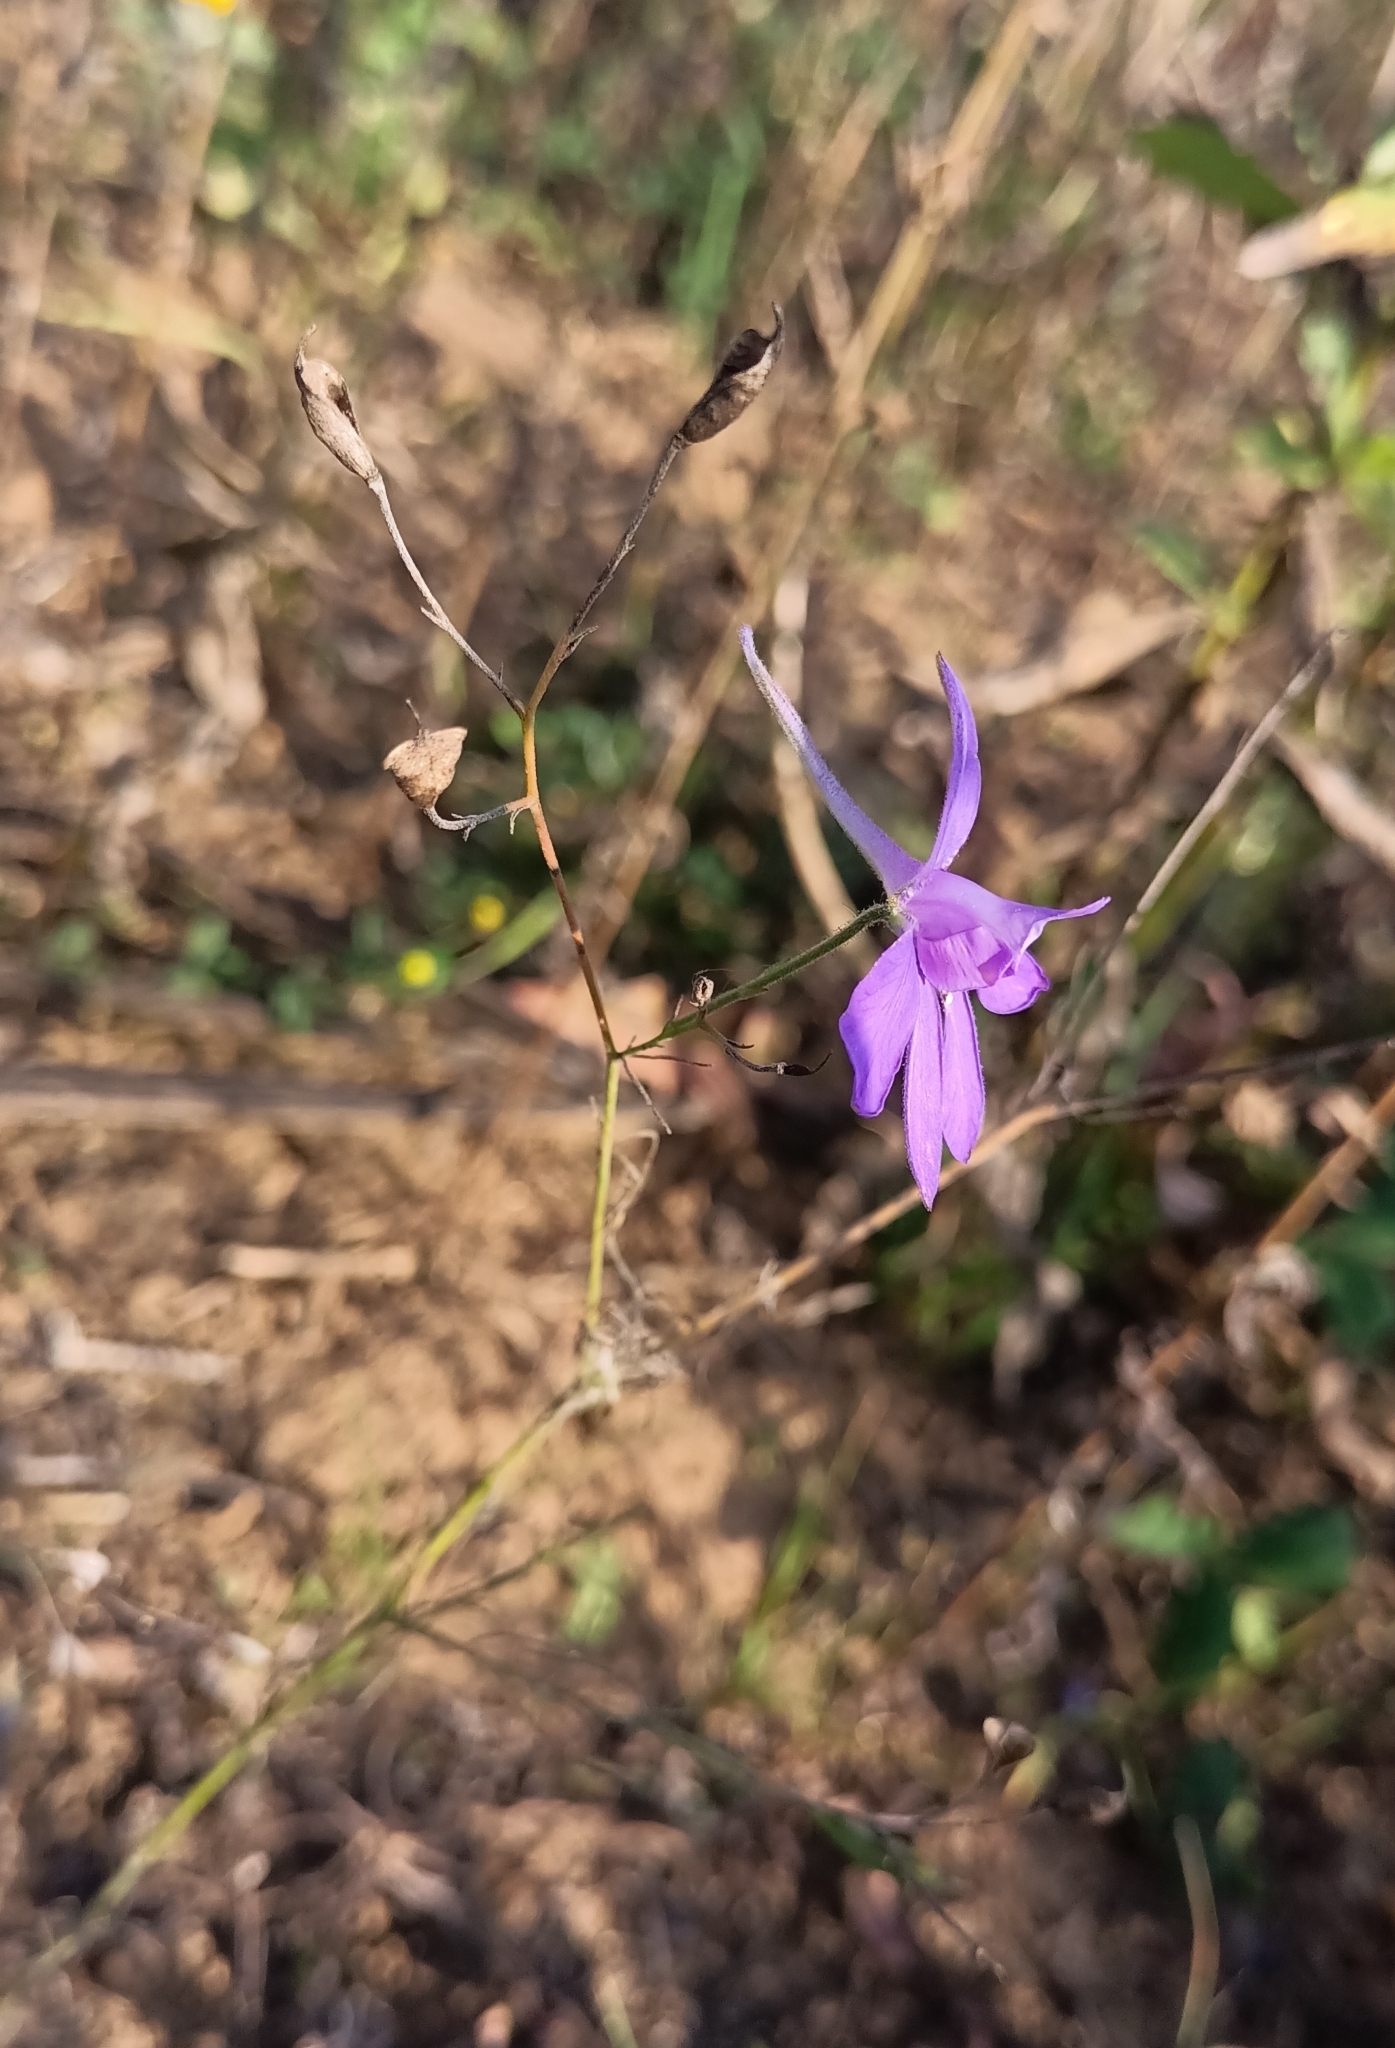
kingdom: Plantae
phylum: Tracheophyta
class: Magnoliopsida
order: Ranunculales
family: Ranunculaceae
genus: Delphinium
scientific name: Delphinium consolida
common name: Branching larkspur
